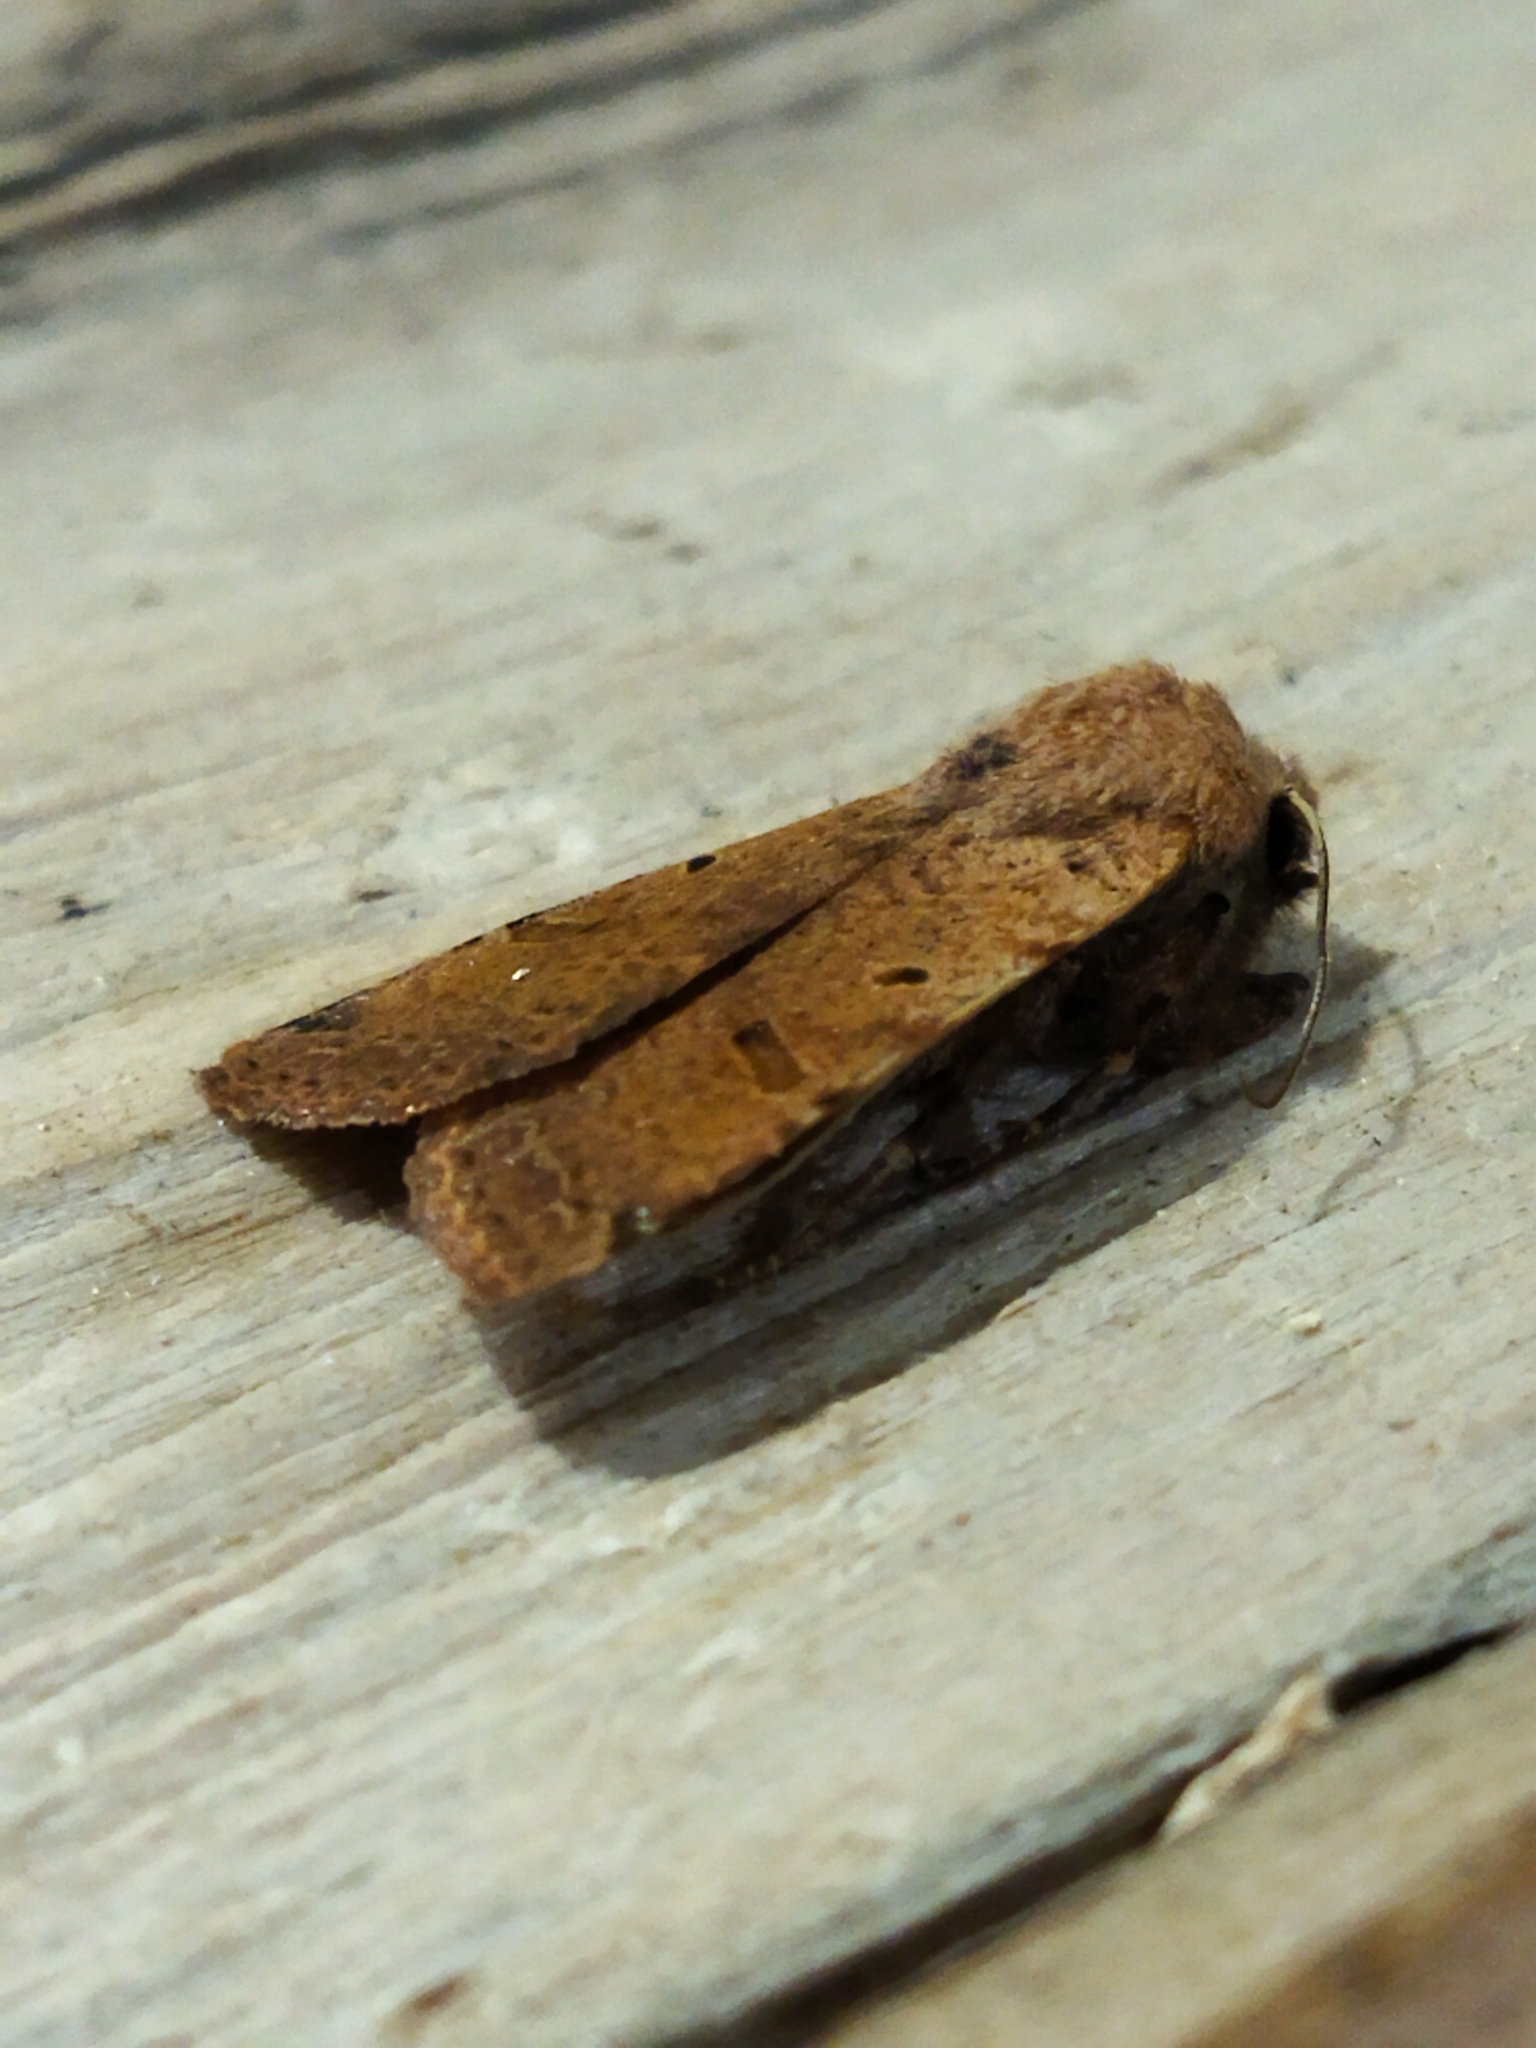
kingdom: Animalia
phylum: Arthropoda
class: Insecta
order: Lepidoptera
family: Noctuidae
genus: Agrochola
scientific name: Agrochola lychnidis
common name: Beaded chestnut
